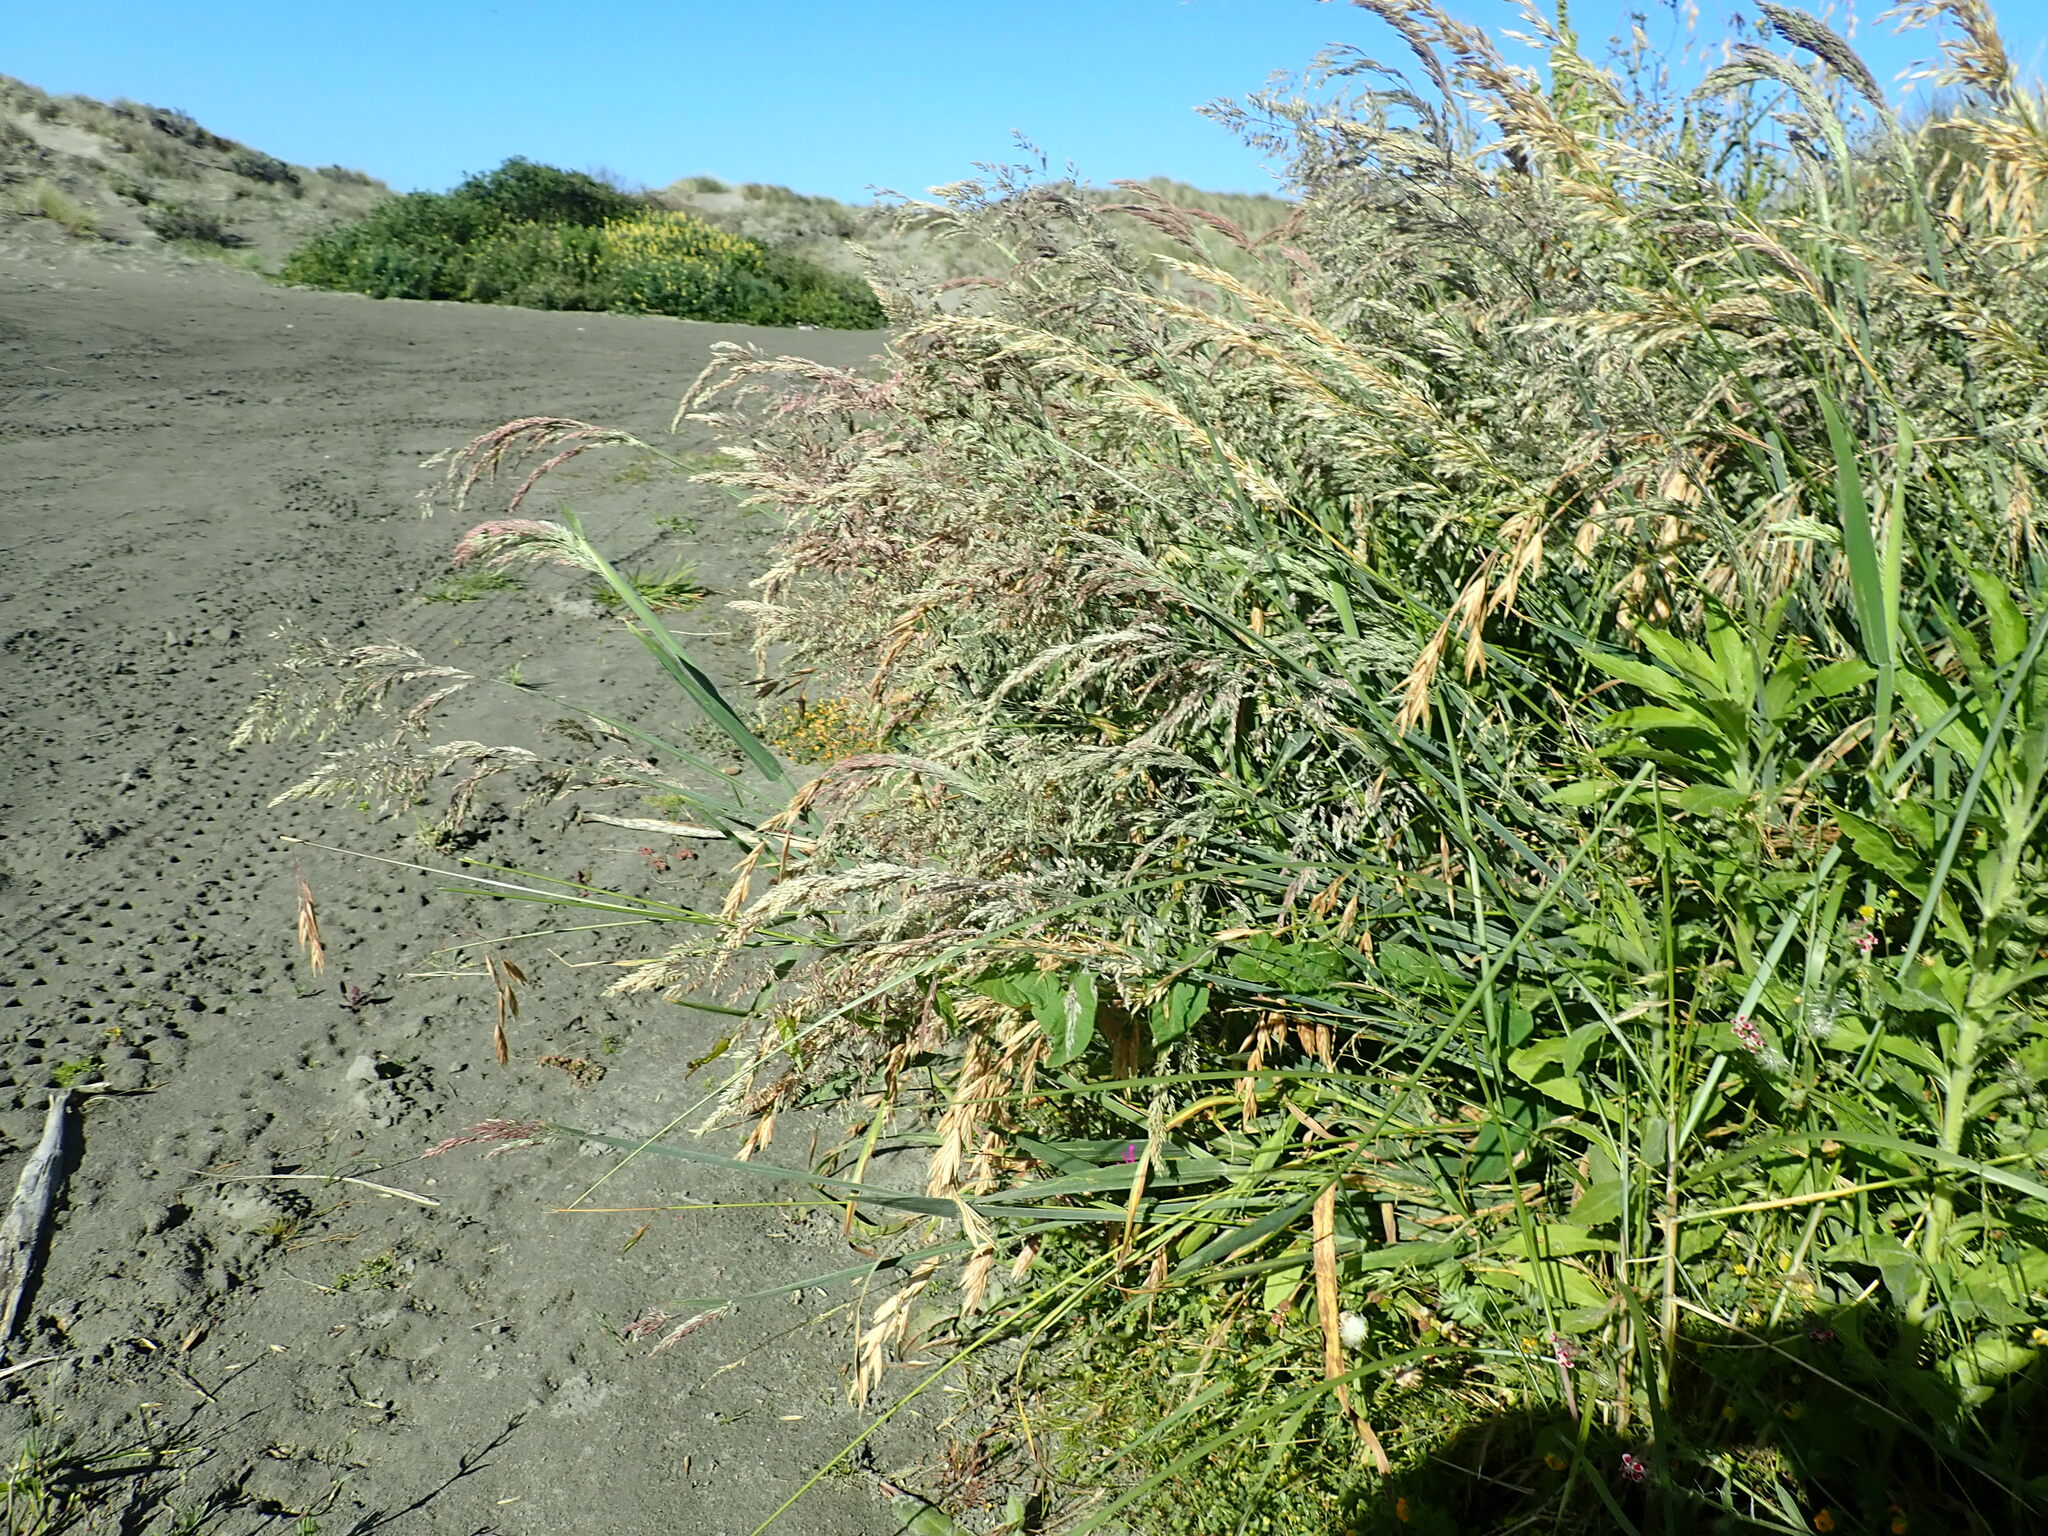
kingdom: Plantae
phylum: Tracheophyta
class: Liliopsida
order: Poales
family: Poaceae
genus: Holcus
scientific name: Holcus lanatus
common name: Yorkshire-fog
